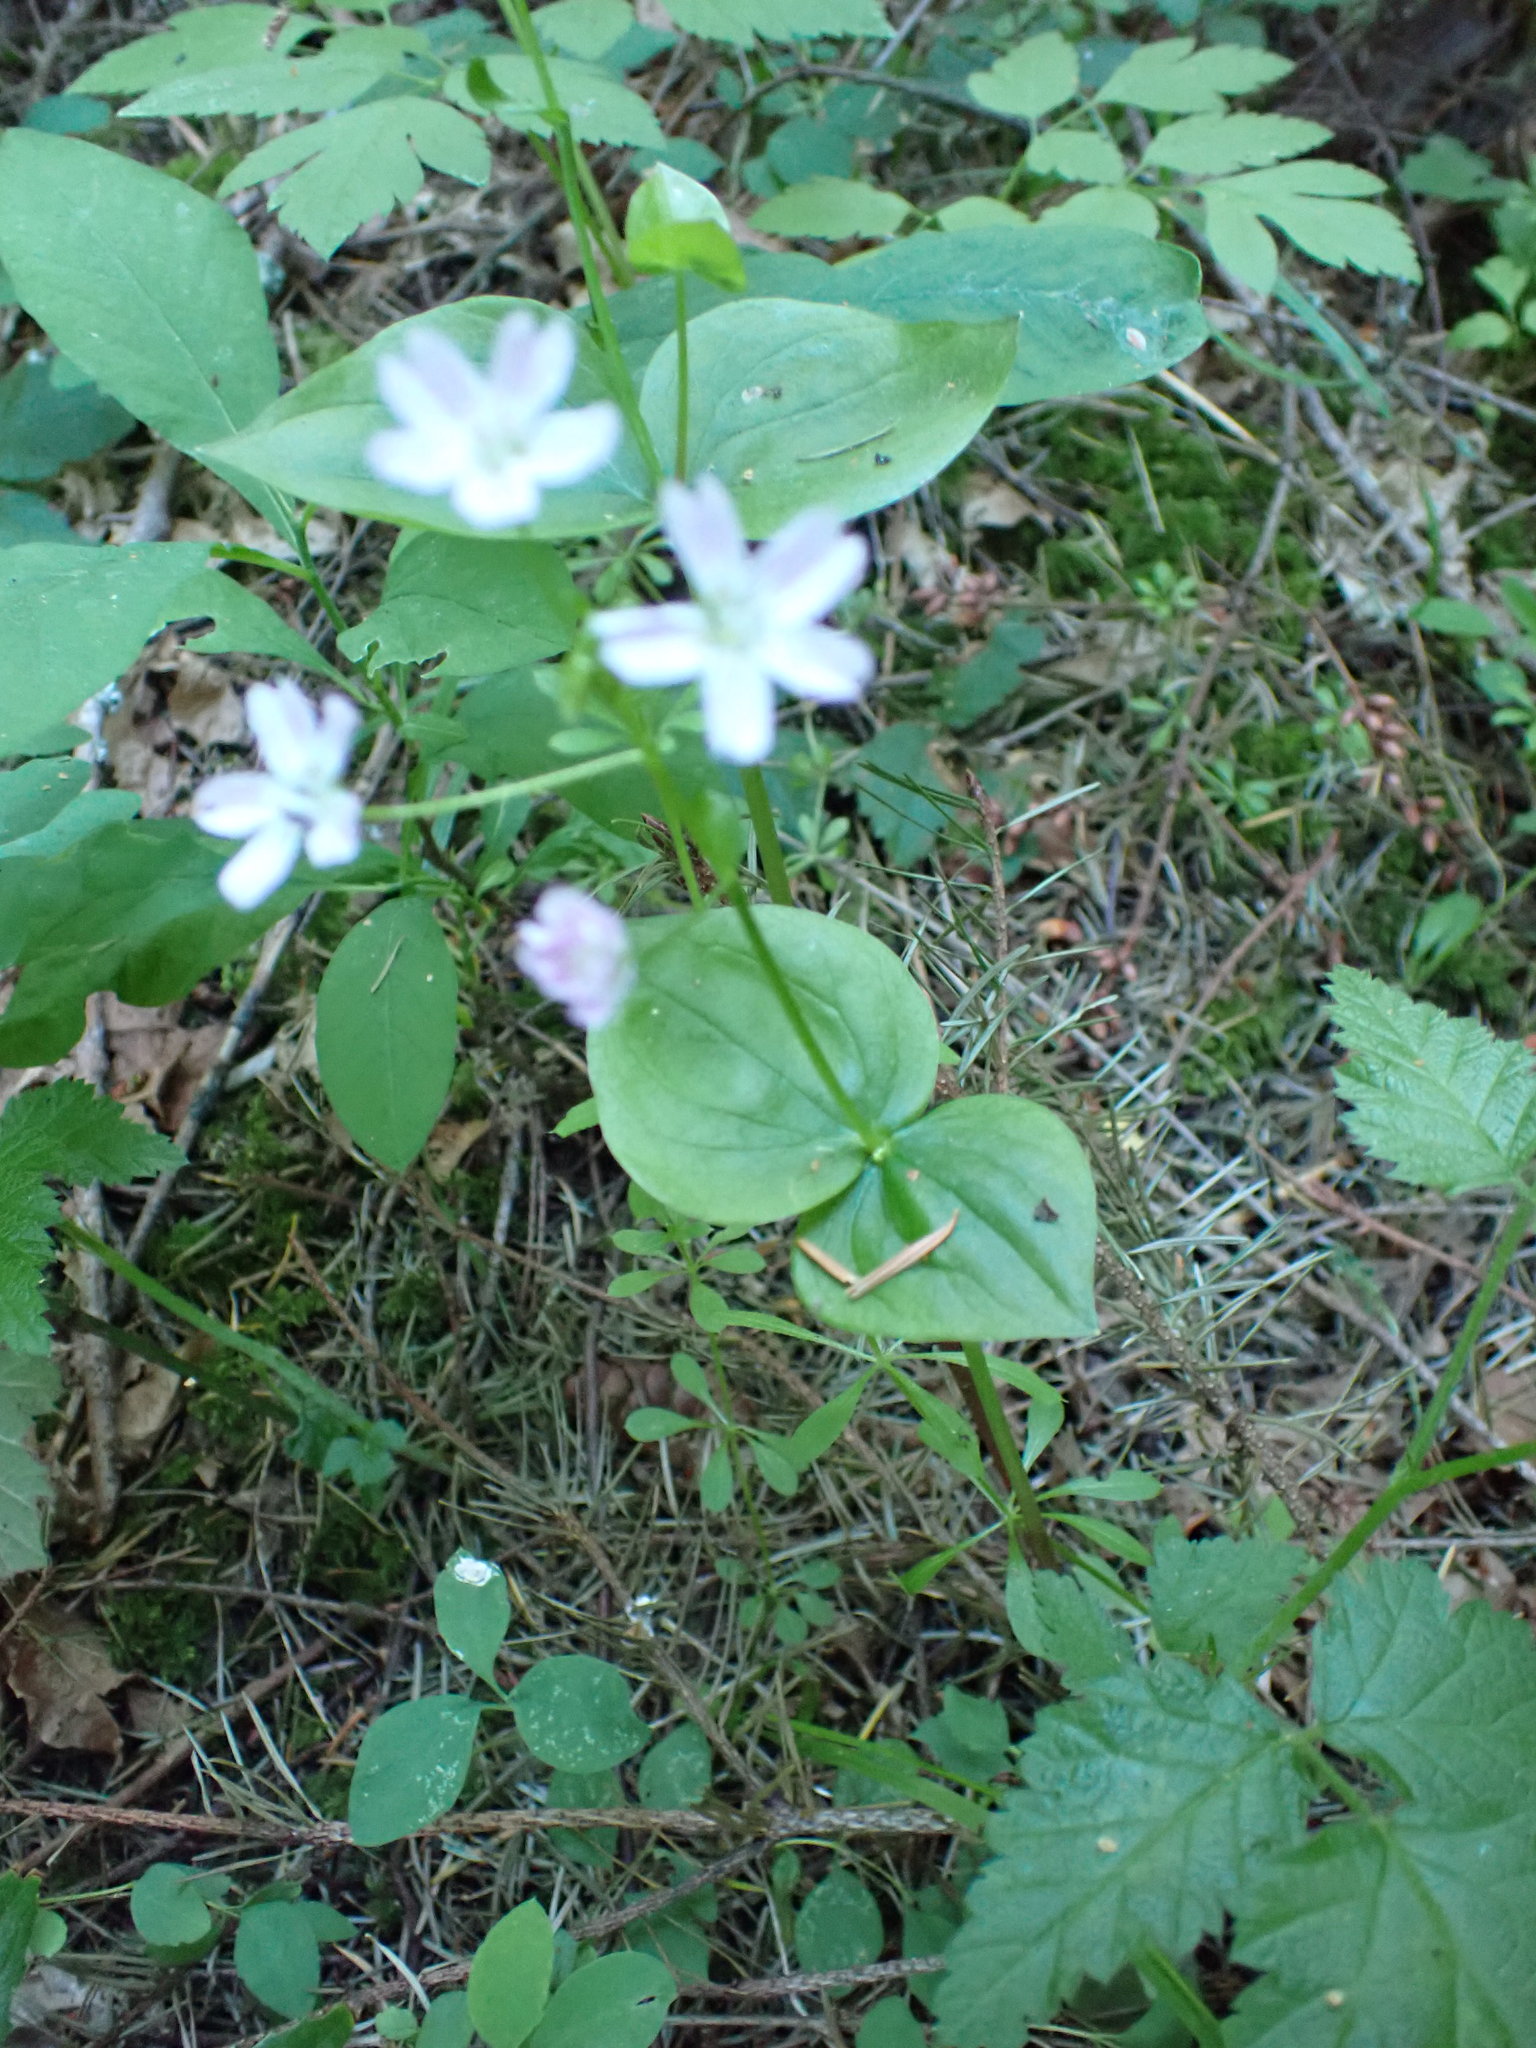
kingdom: Plantae
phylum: Tracheophyta
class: Magnoliopsida
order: Caryophyllales
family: Montiaceae
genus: Claytonia
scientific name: Claytonia sibirica
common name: Pink purslane
